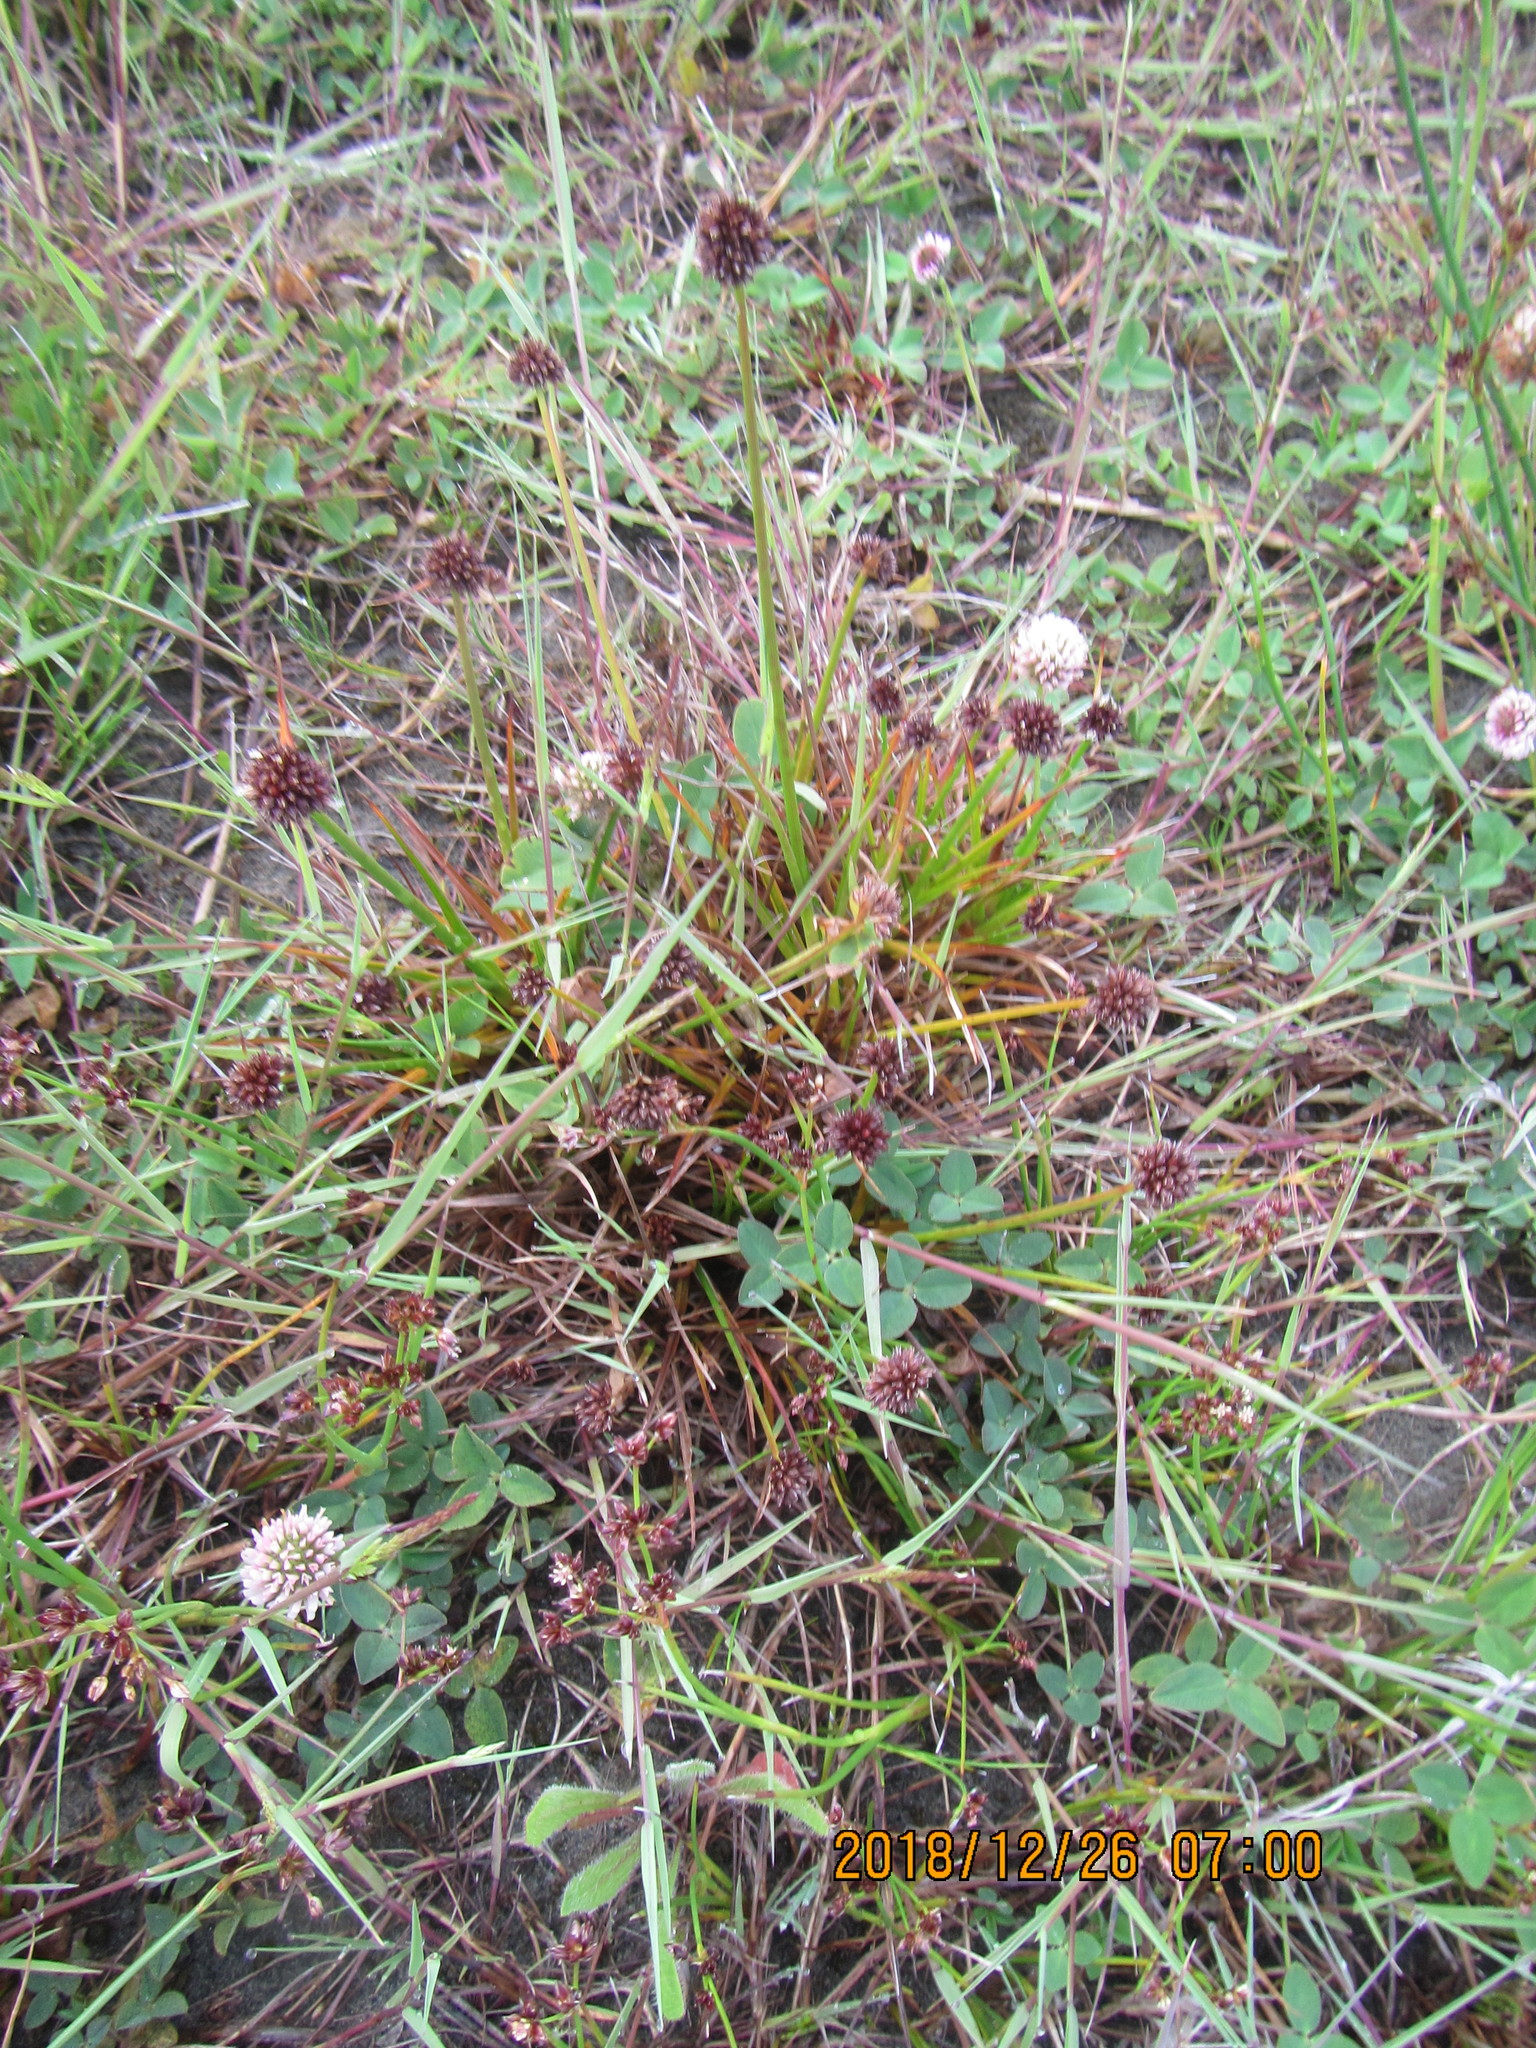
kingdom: Plantae
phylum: Tracheophyta
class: Liliopsida
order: Poales
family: Juncaceae
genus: Juncus
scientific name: Juncus caespiticius
